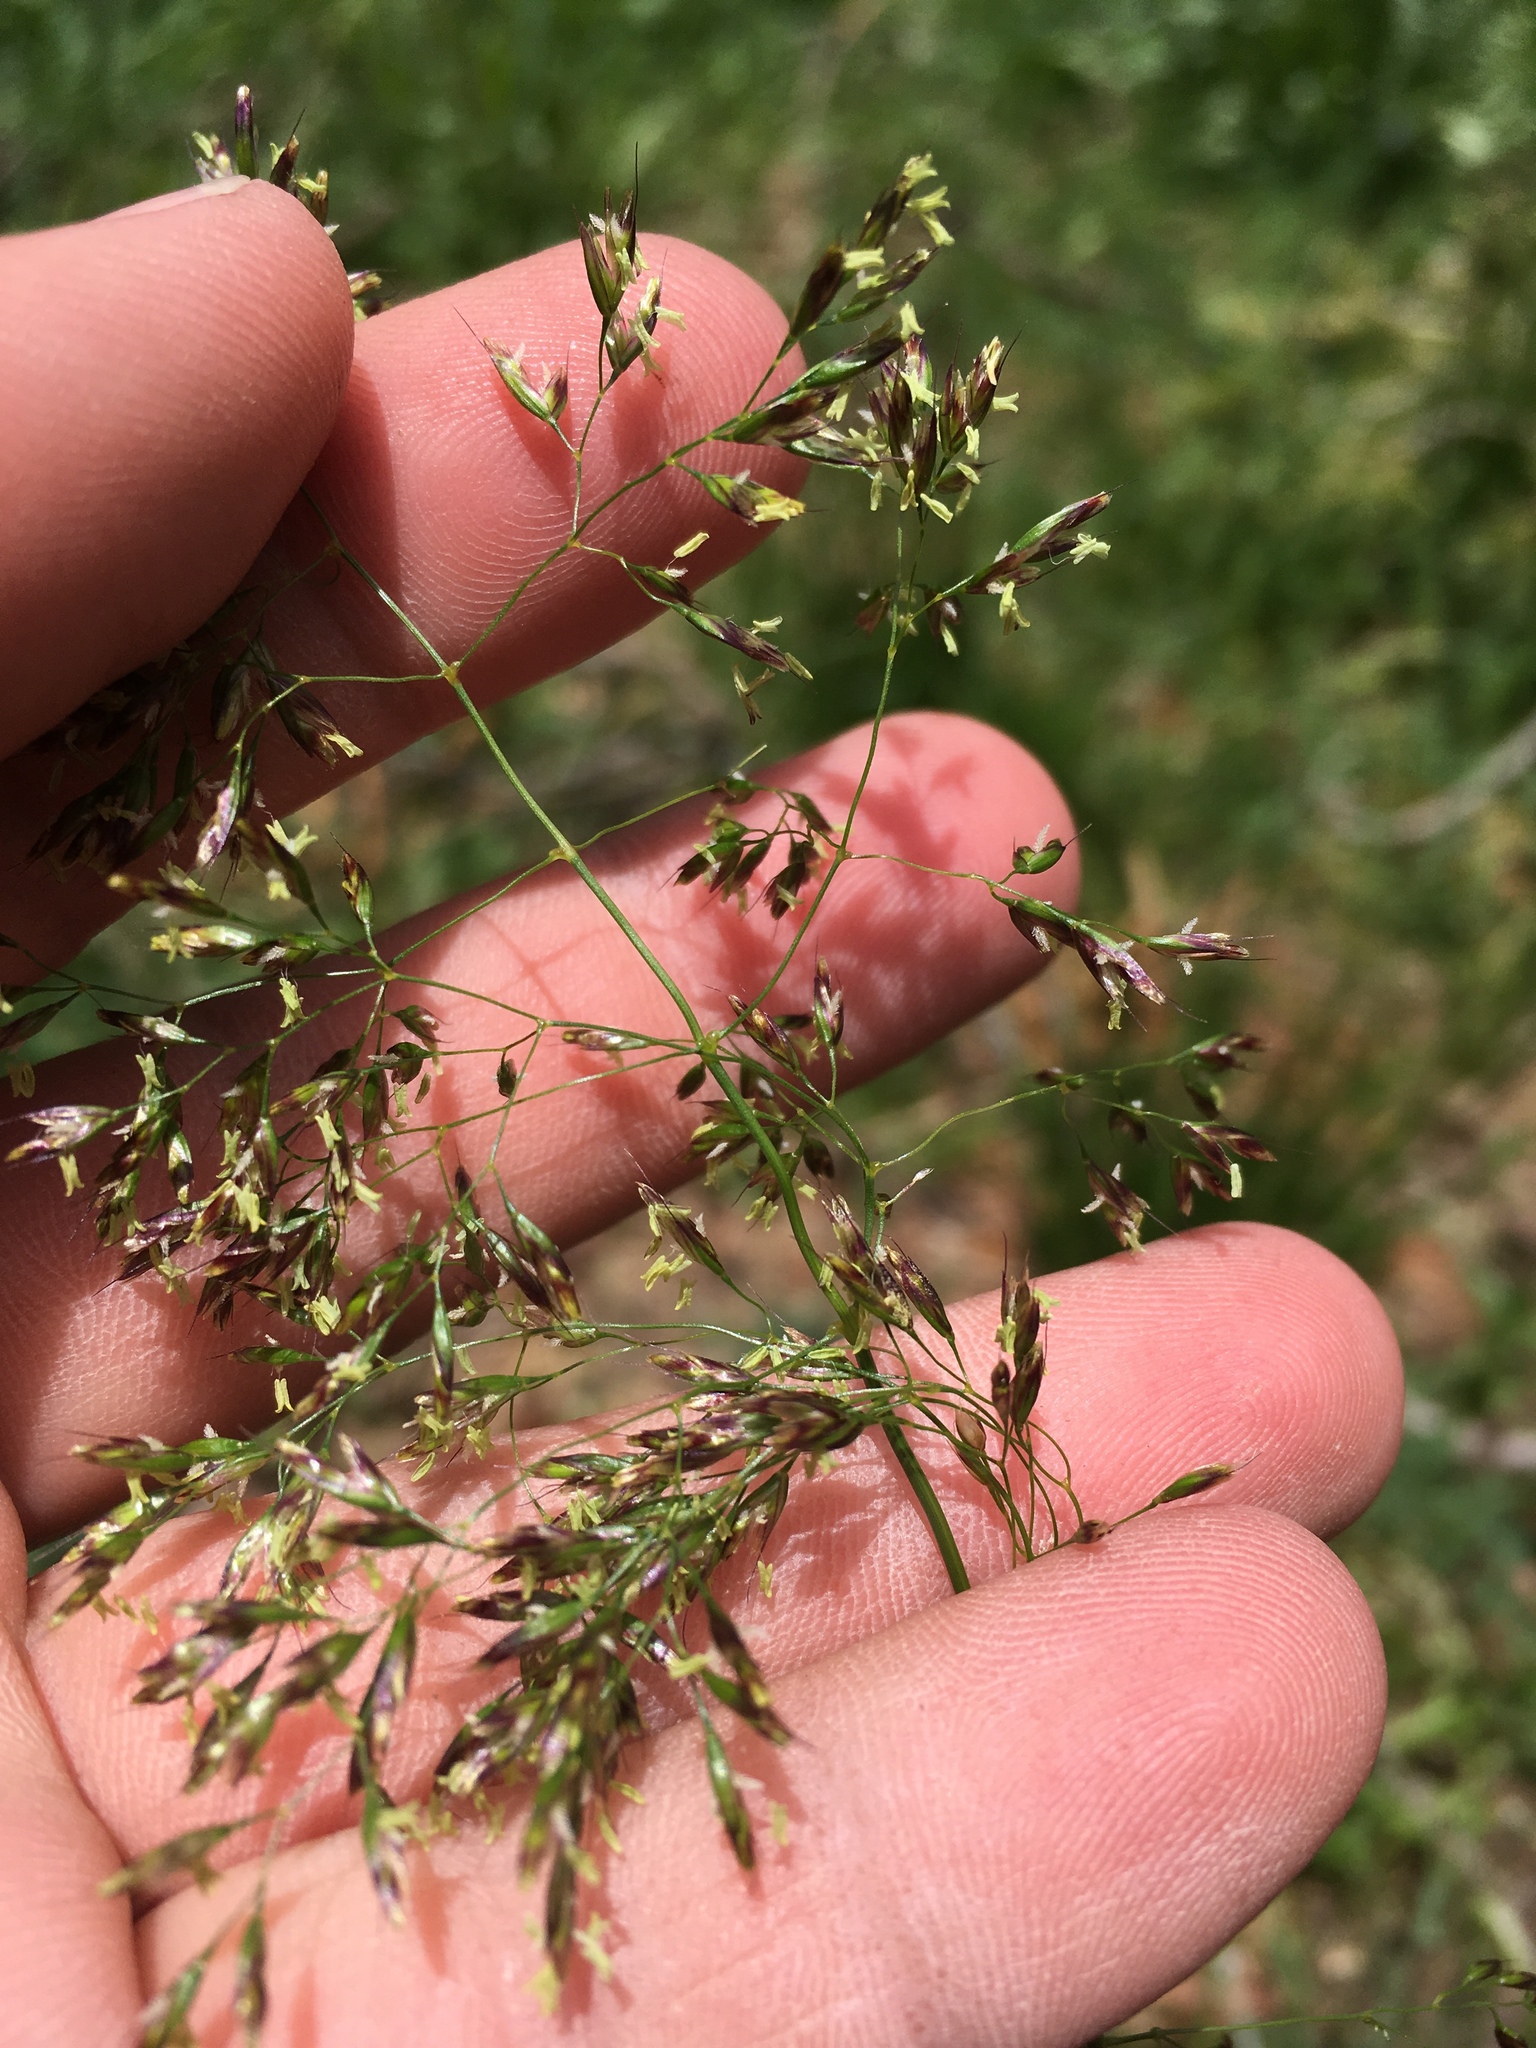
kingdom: Plantae
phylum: Tracheophyta
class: Liliopsida
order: Poales
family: Poaceae
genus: Deschampsia
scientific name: Deschampsia cespitosa
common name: Tufted hair-grass
